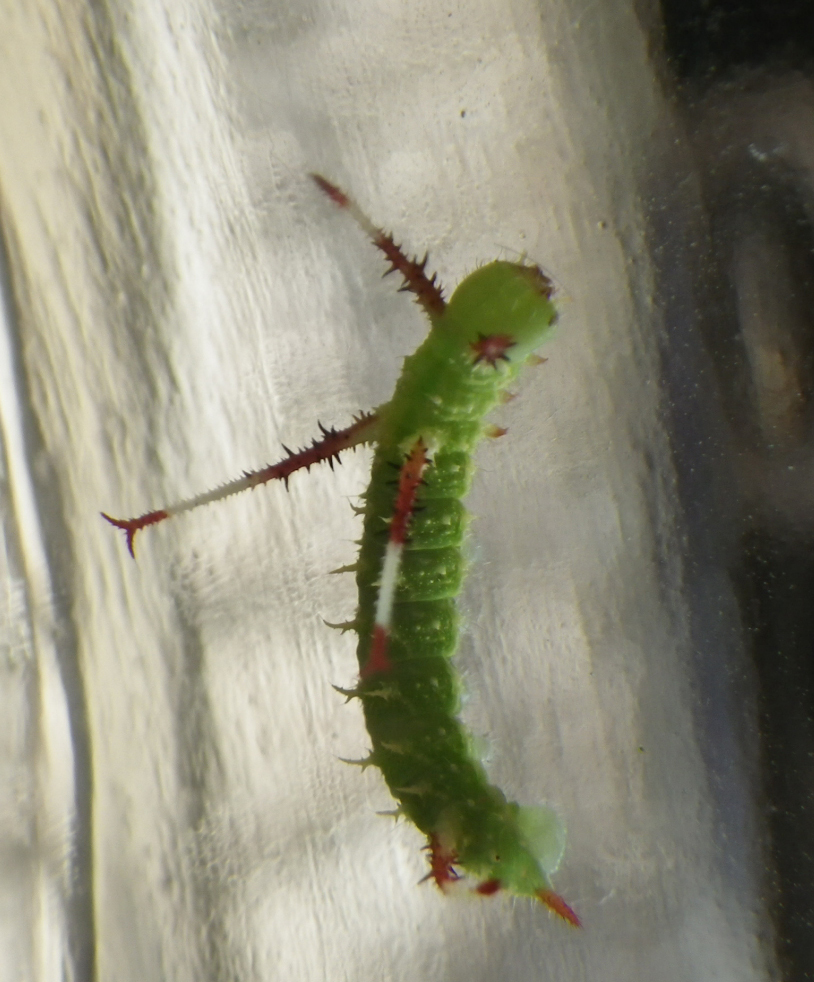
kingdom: Animalia
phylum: Arthropoda
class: Insecta
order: Lepidoptera
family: Saturniidae
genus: Aglia
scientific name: Aglia tau
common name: Tau emperor
